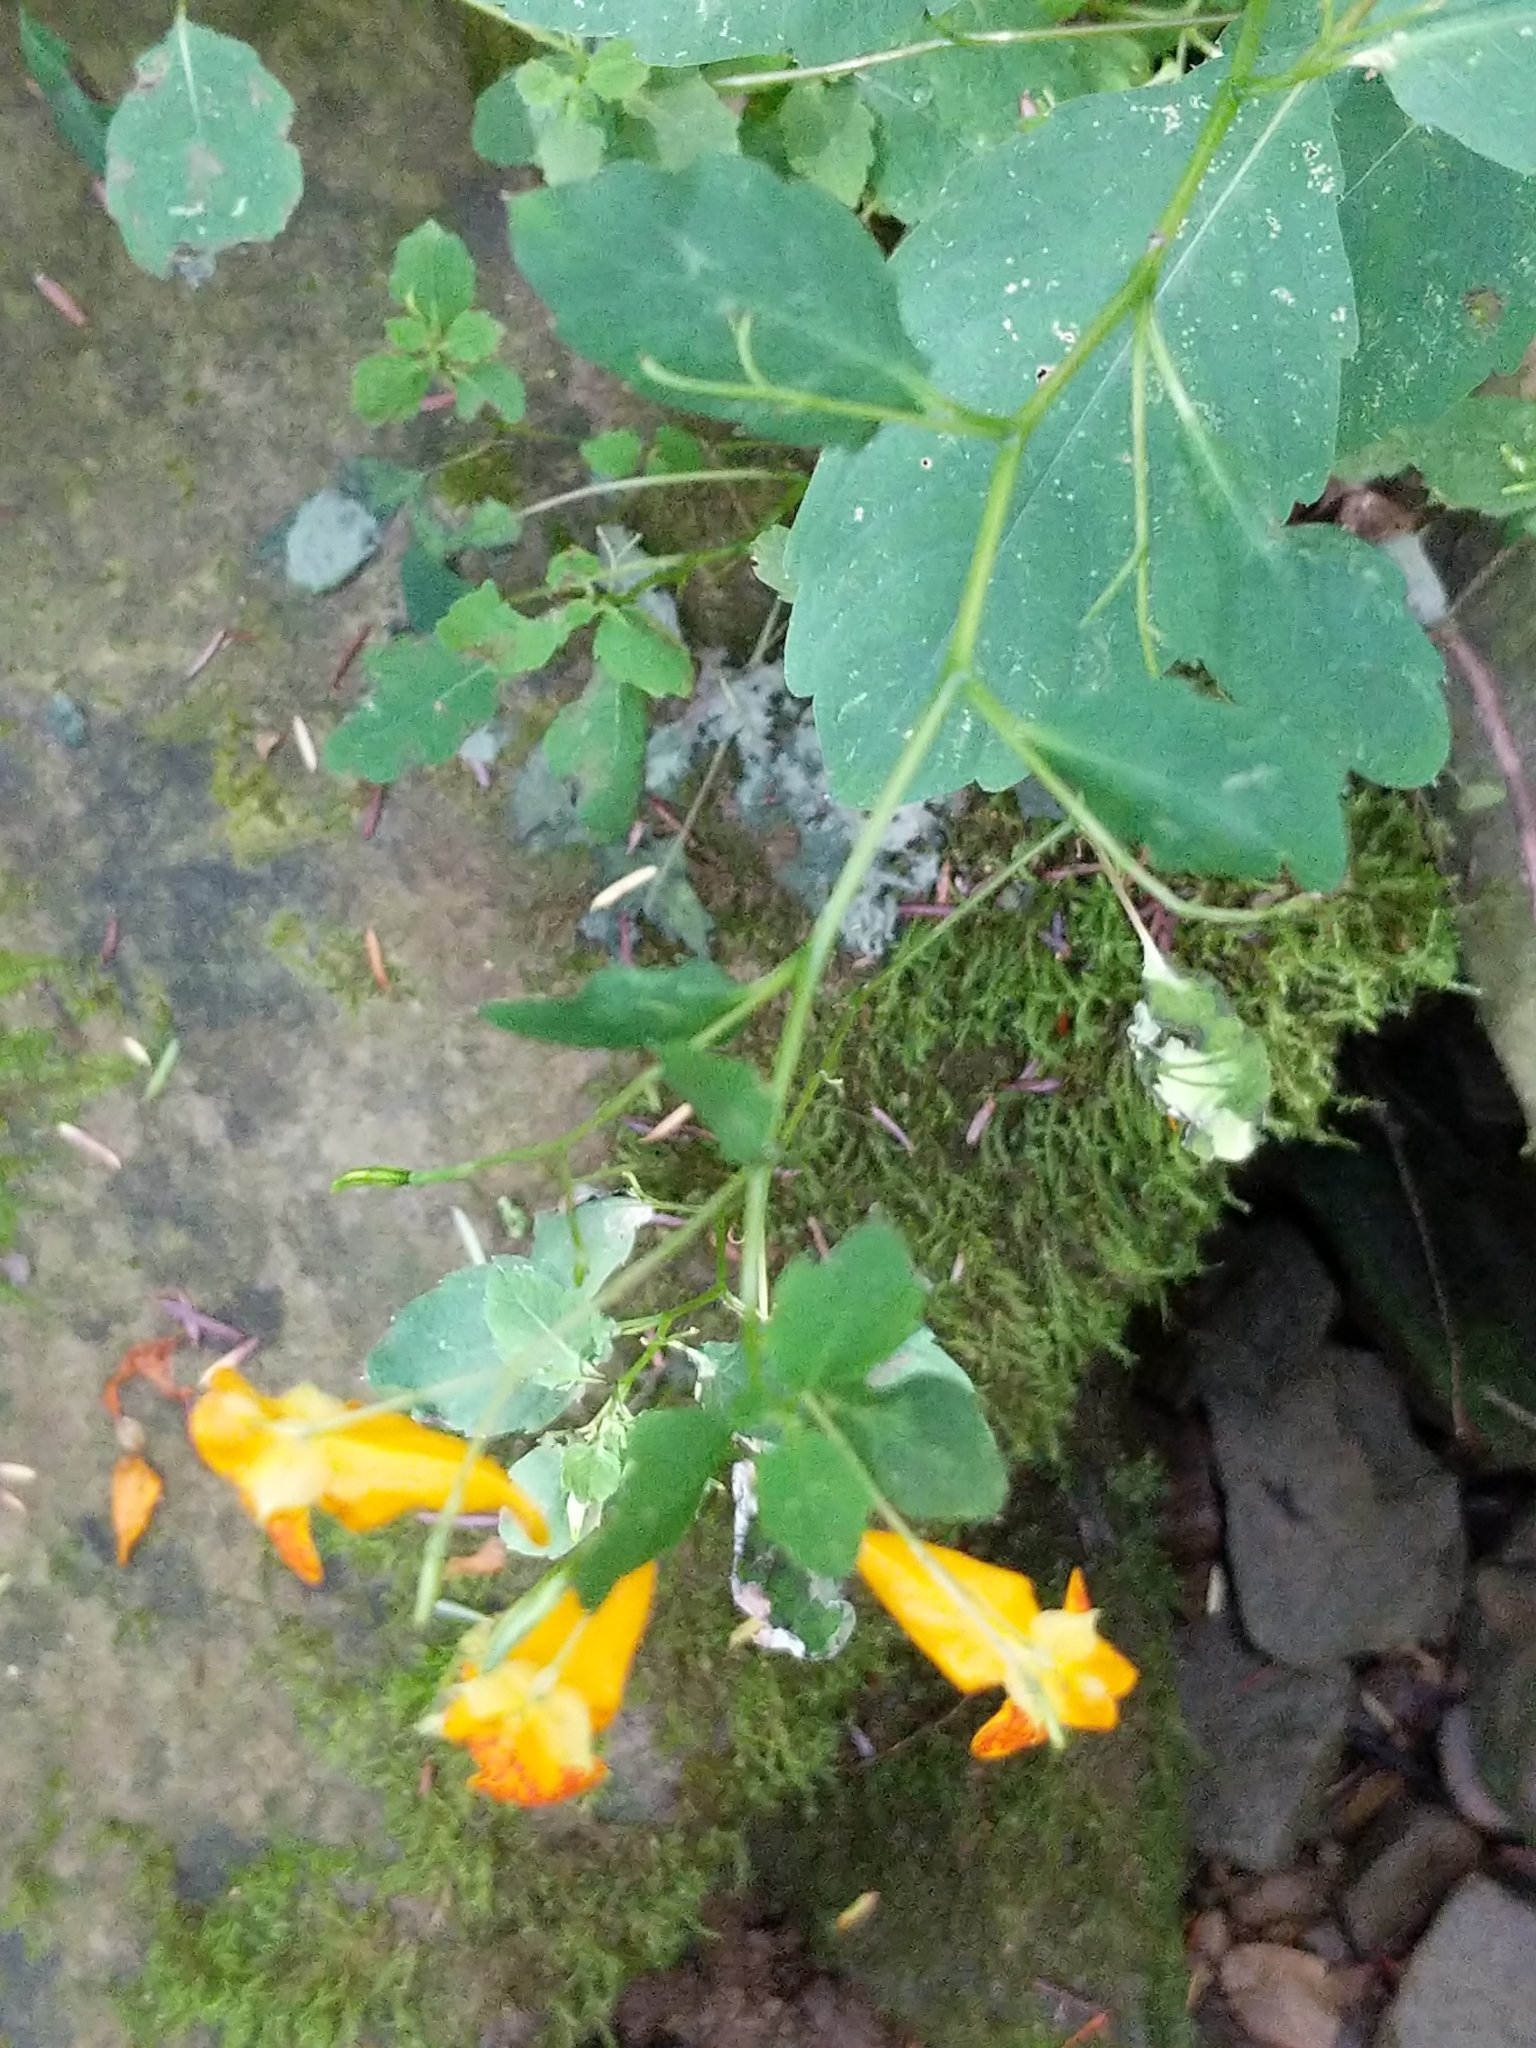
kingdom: Plantae
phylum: Tracheophyta
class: Magnoliopsida
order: Ericales
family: Balsaminaceae
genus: Impatiens
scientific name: Impatiens capensis
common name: Orange balsam
